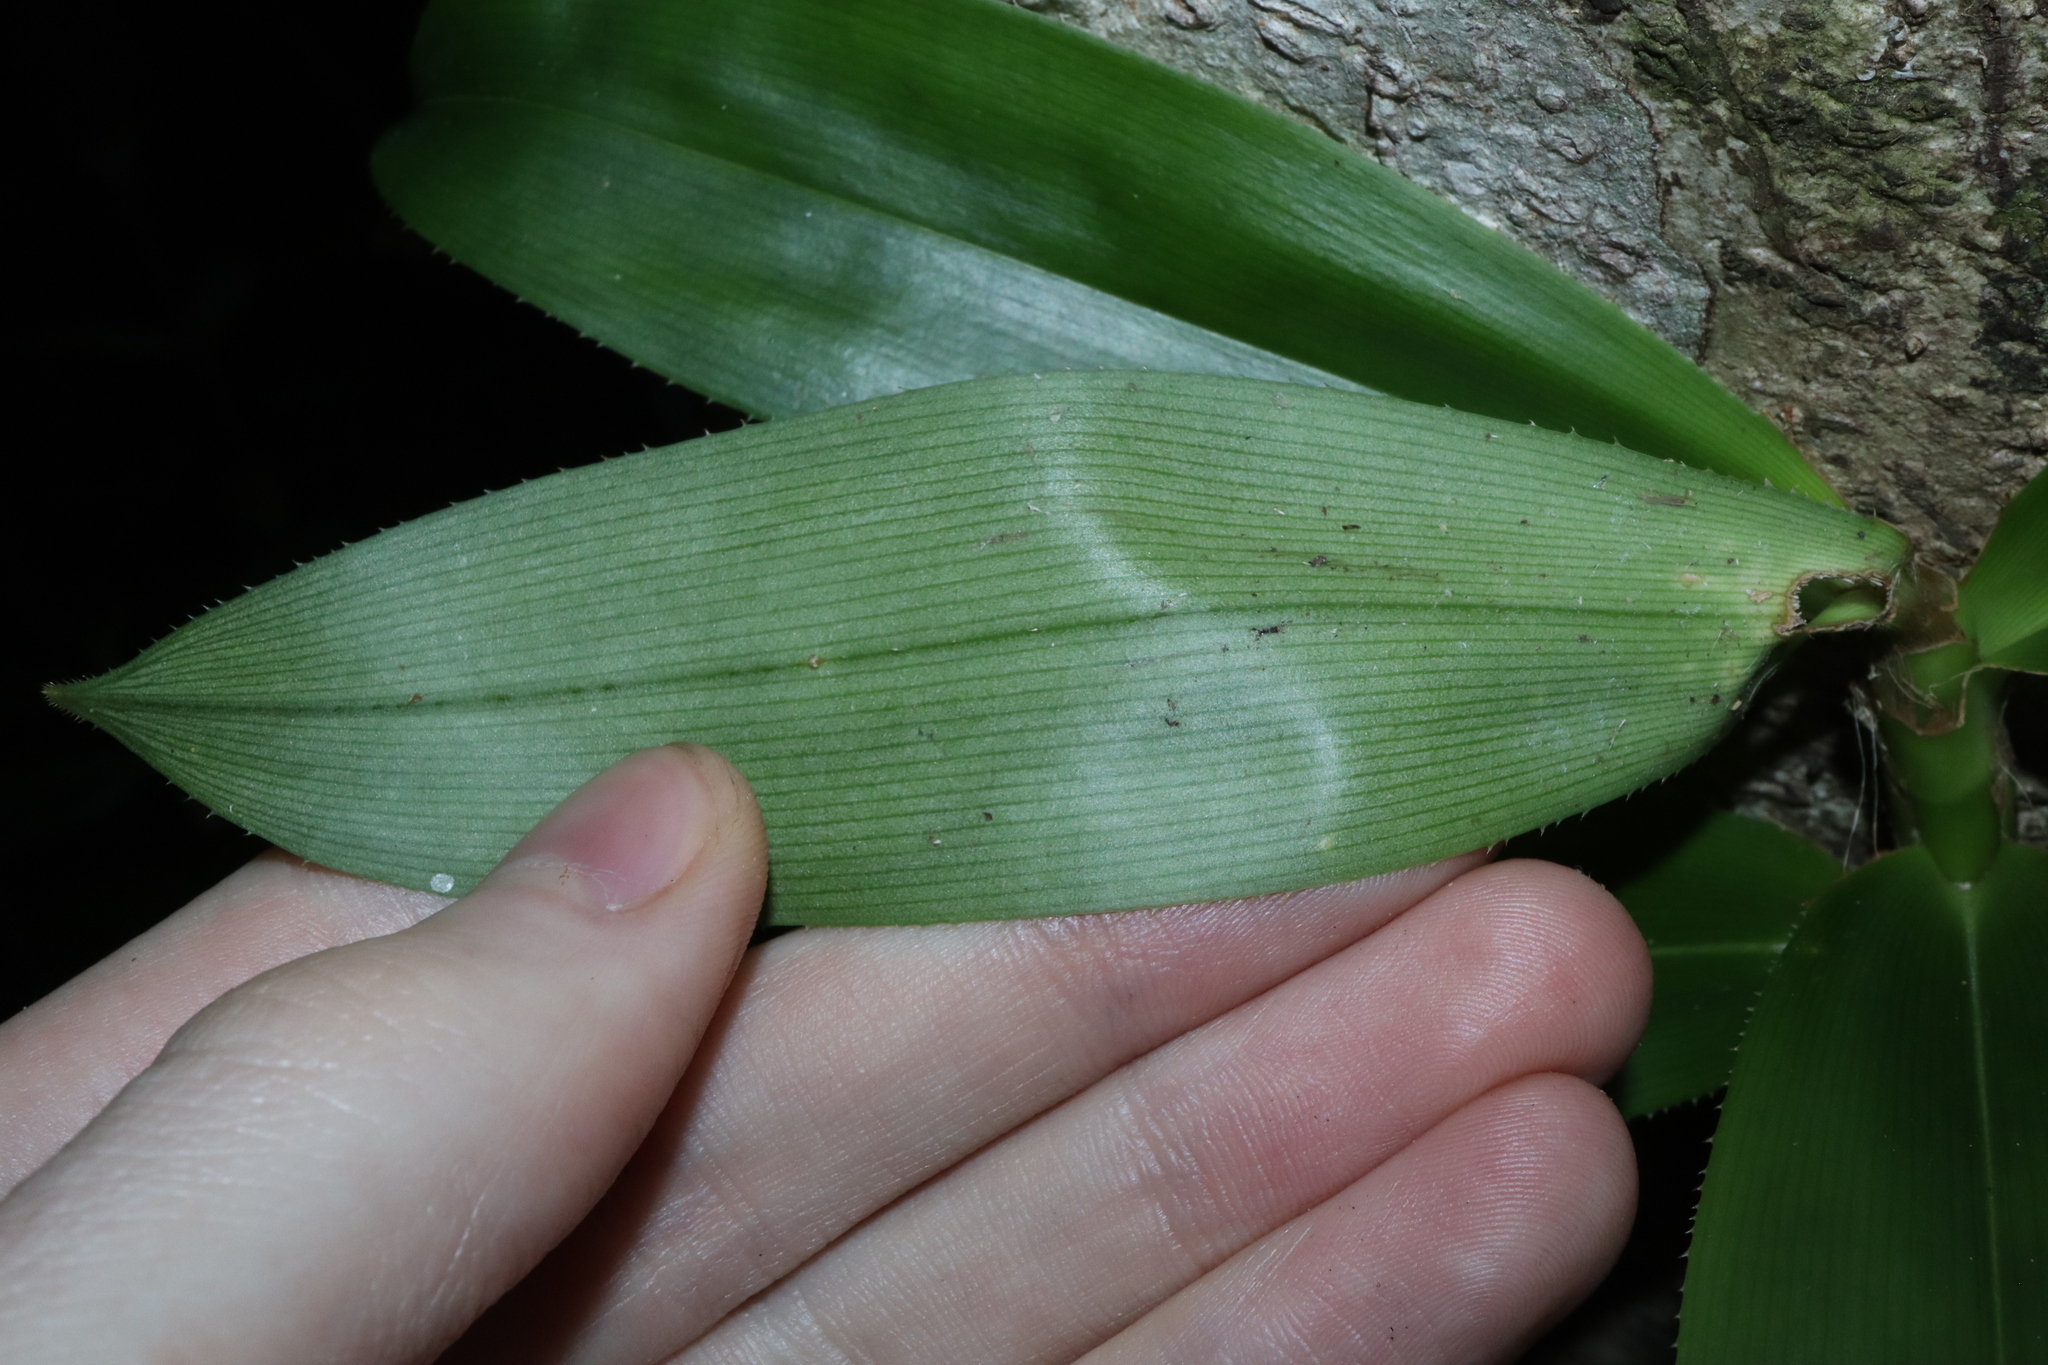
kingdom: Plantae
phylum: Tracheophyta
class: Liliopsida
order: Pandanales
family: Pandanaceae
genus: Freycinetia
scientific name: Freycinetia scandens
